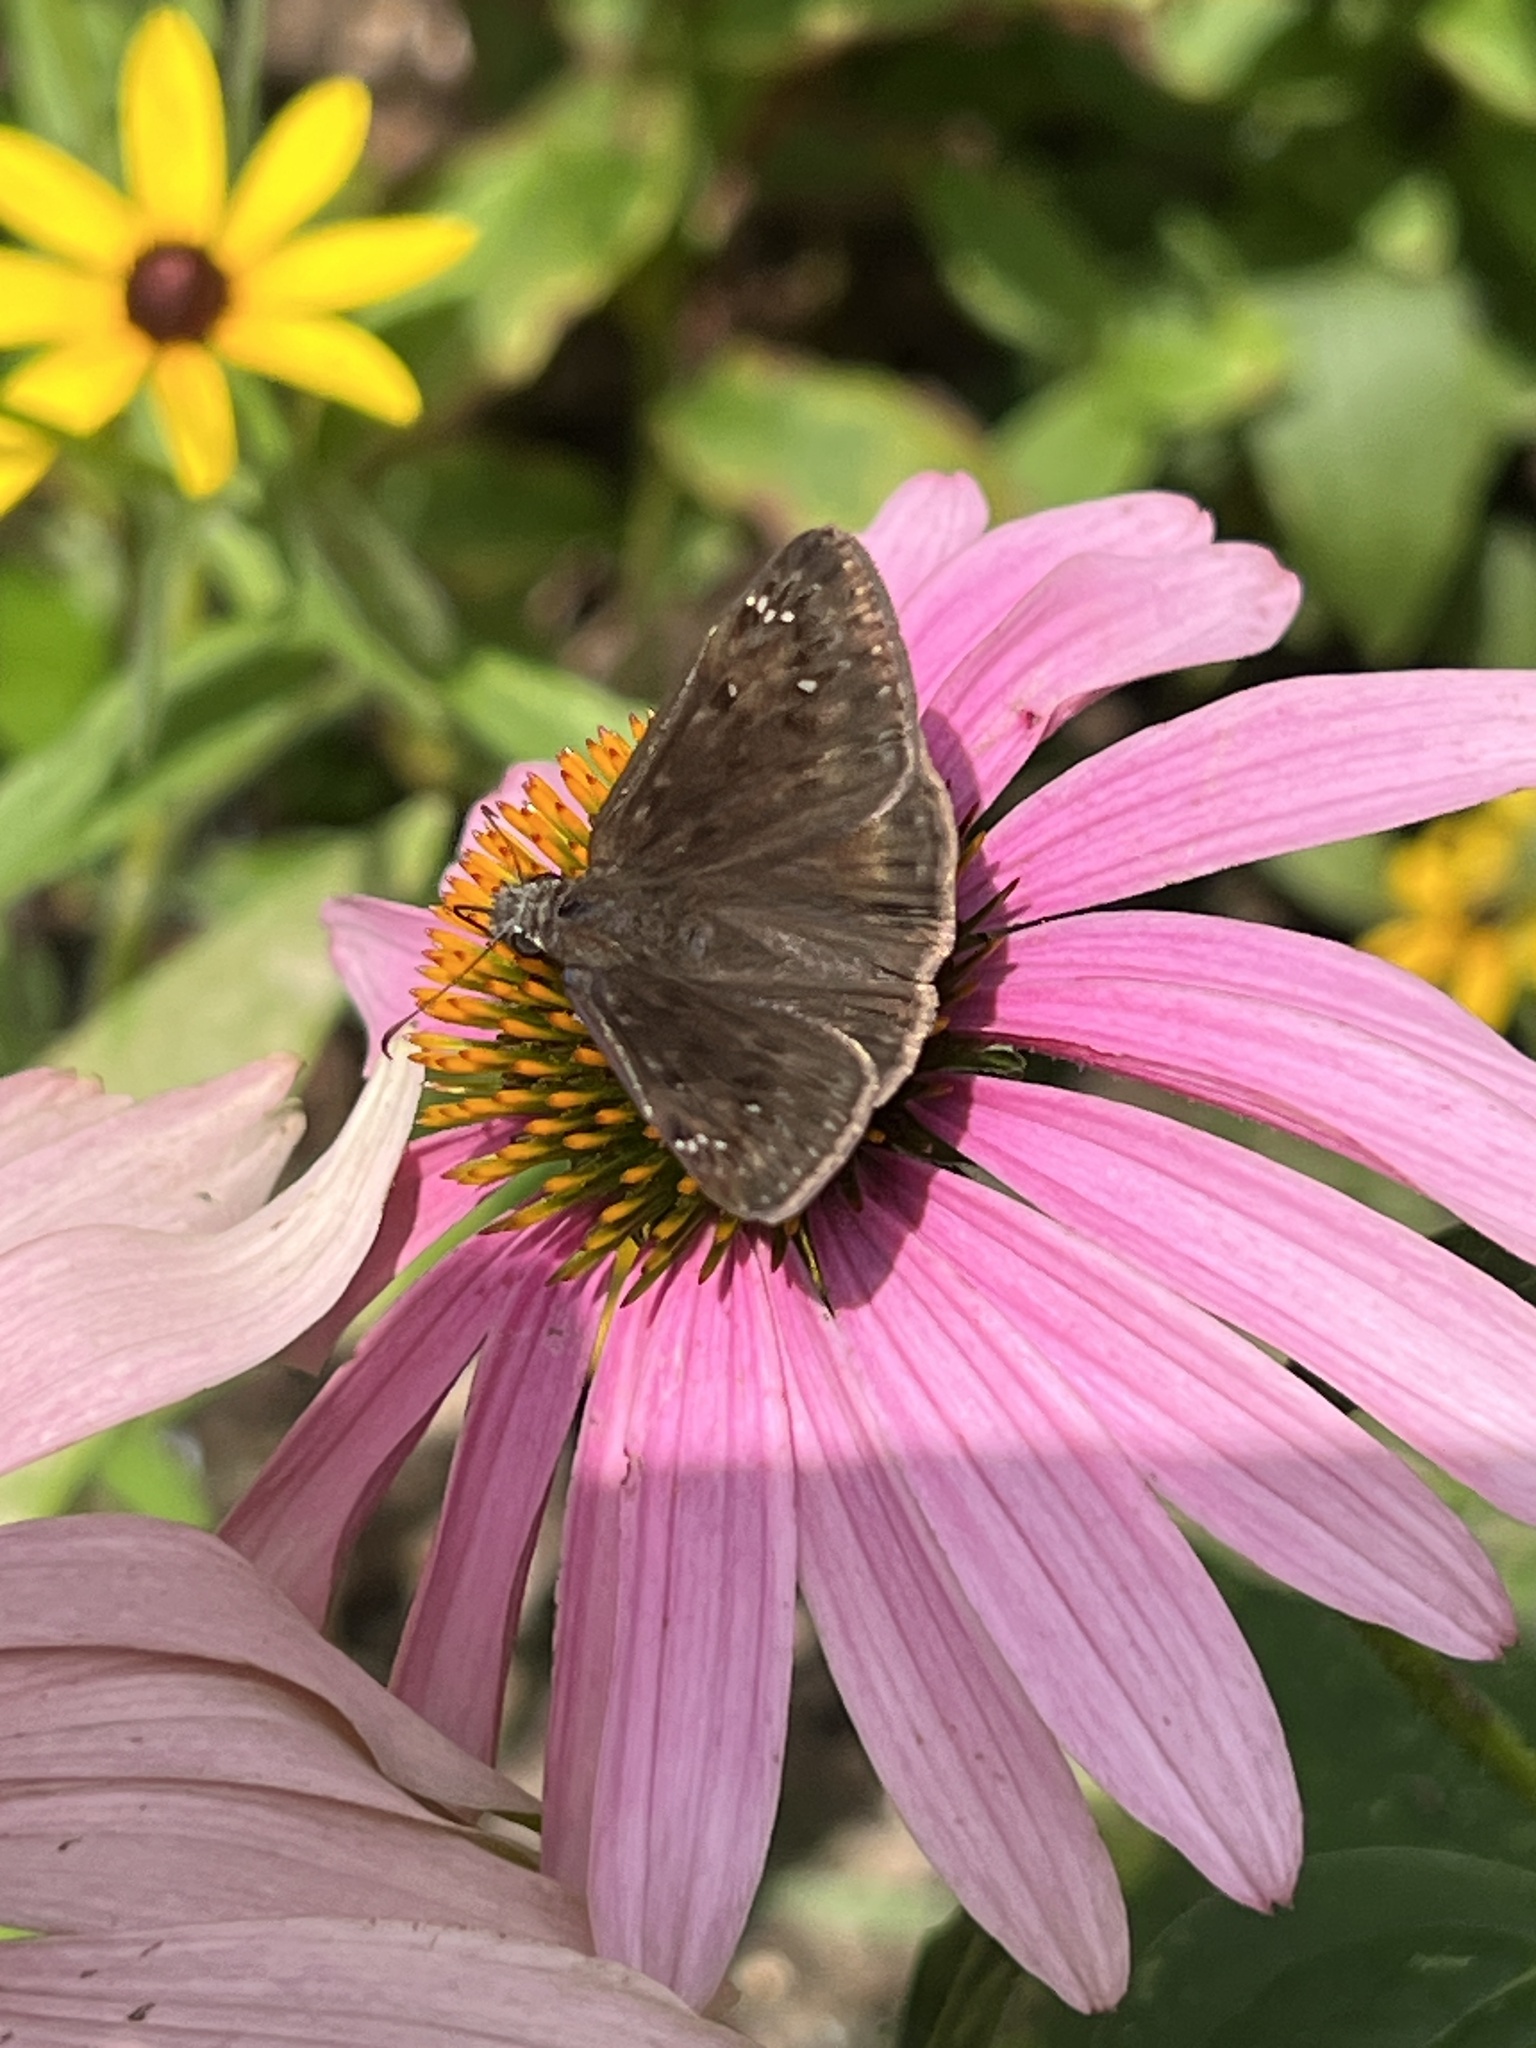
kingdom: Animalia
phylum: Arthropoda
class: Insecta
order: Lepidoptera
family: Hesperiidae
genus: Erynnis
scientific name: Erynnis horatius
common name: Horace's duskywing
